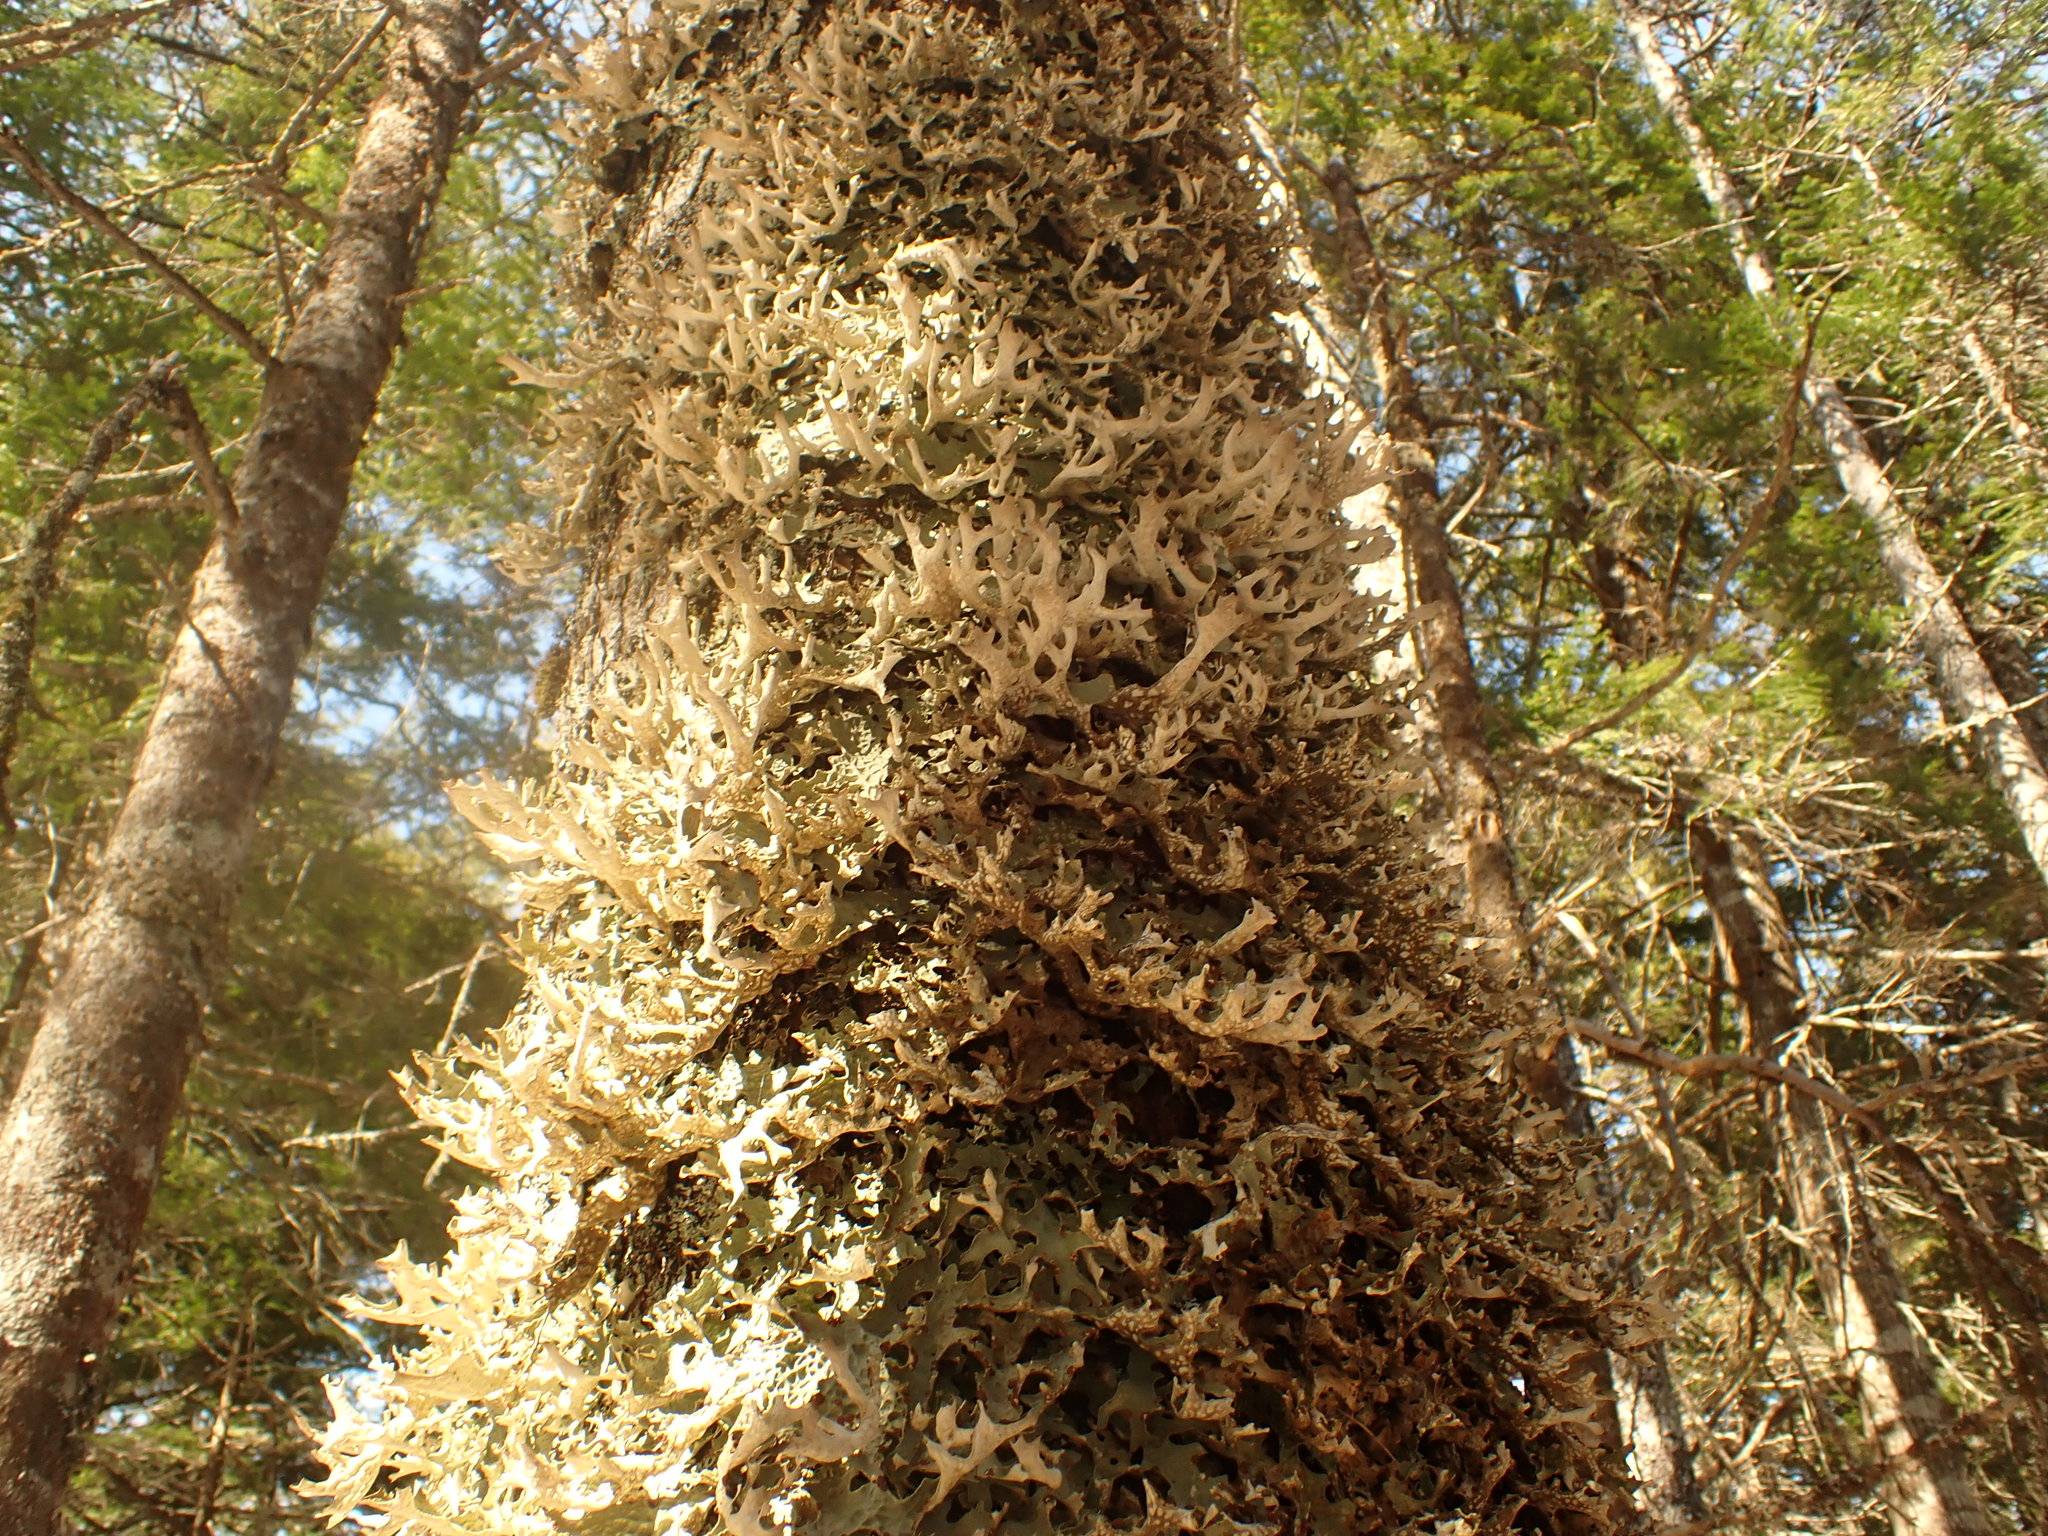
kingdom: Fungi
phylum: Ascomycota
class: Lecanoromycetes
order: Peltigerales
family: Lobariaceae
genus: Lobaria
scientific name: Lobaria pulmonaria
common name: Lungwort
